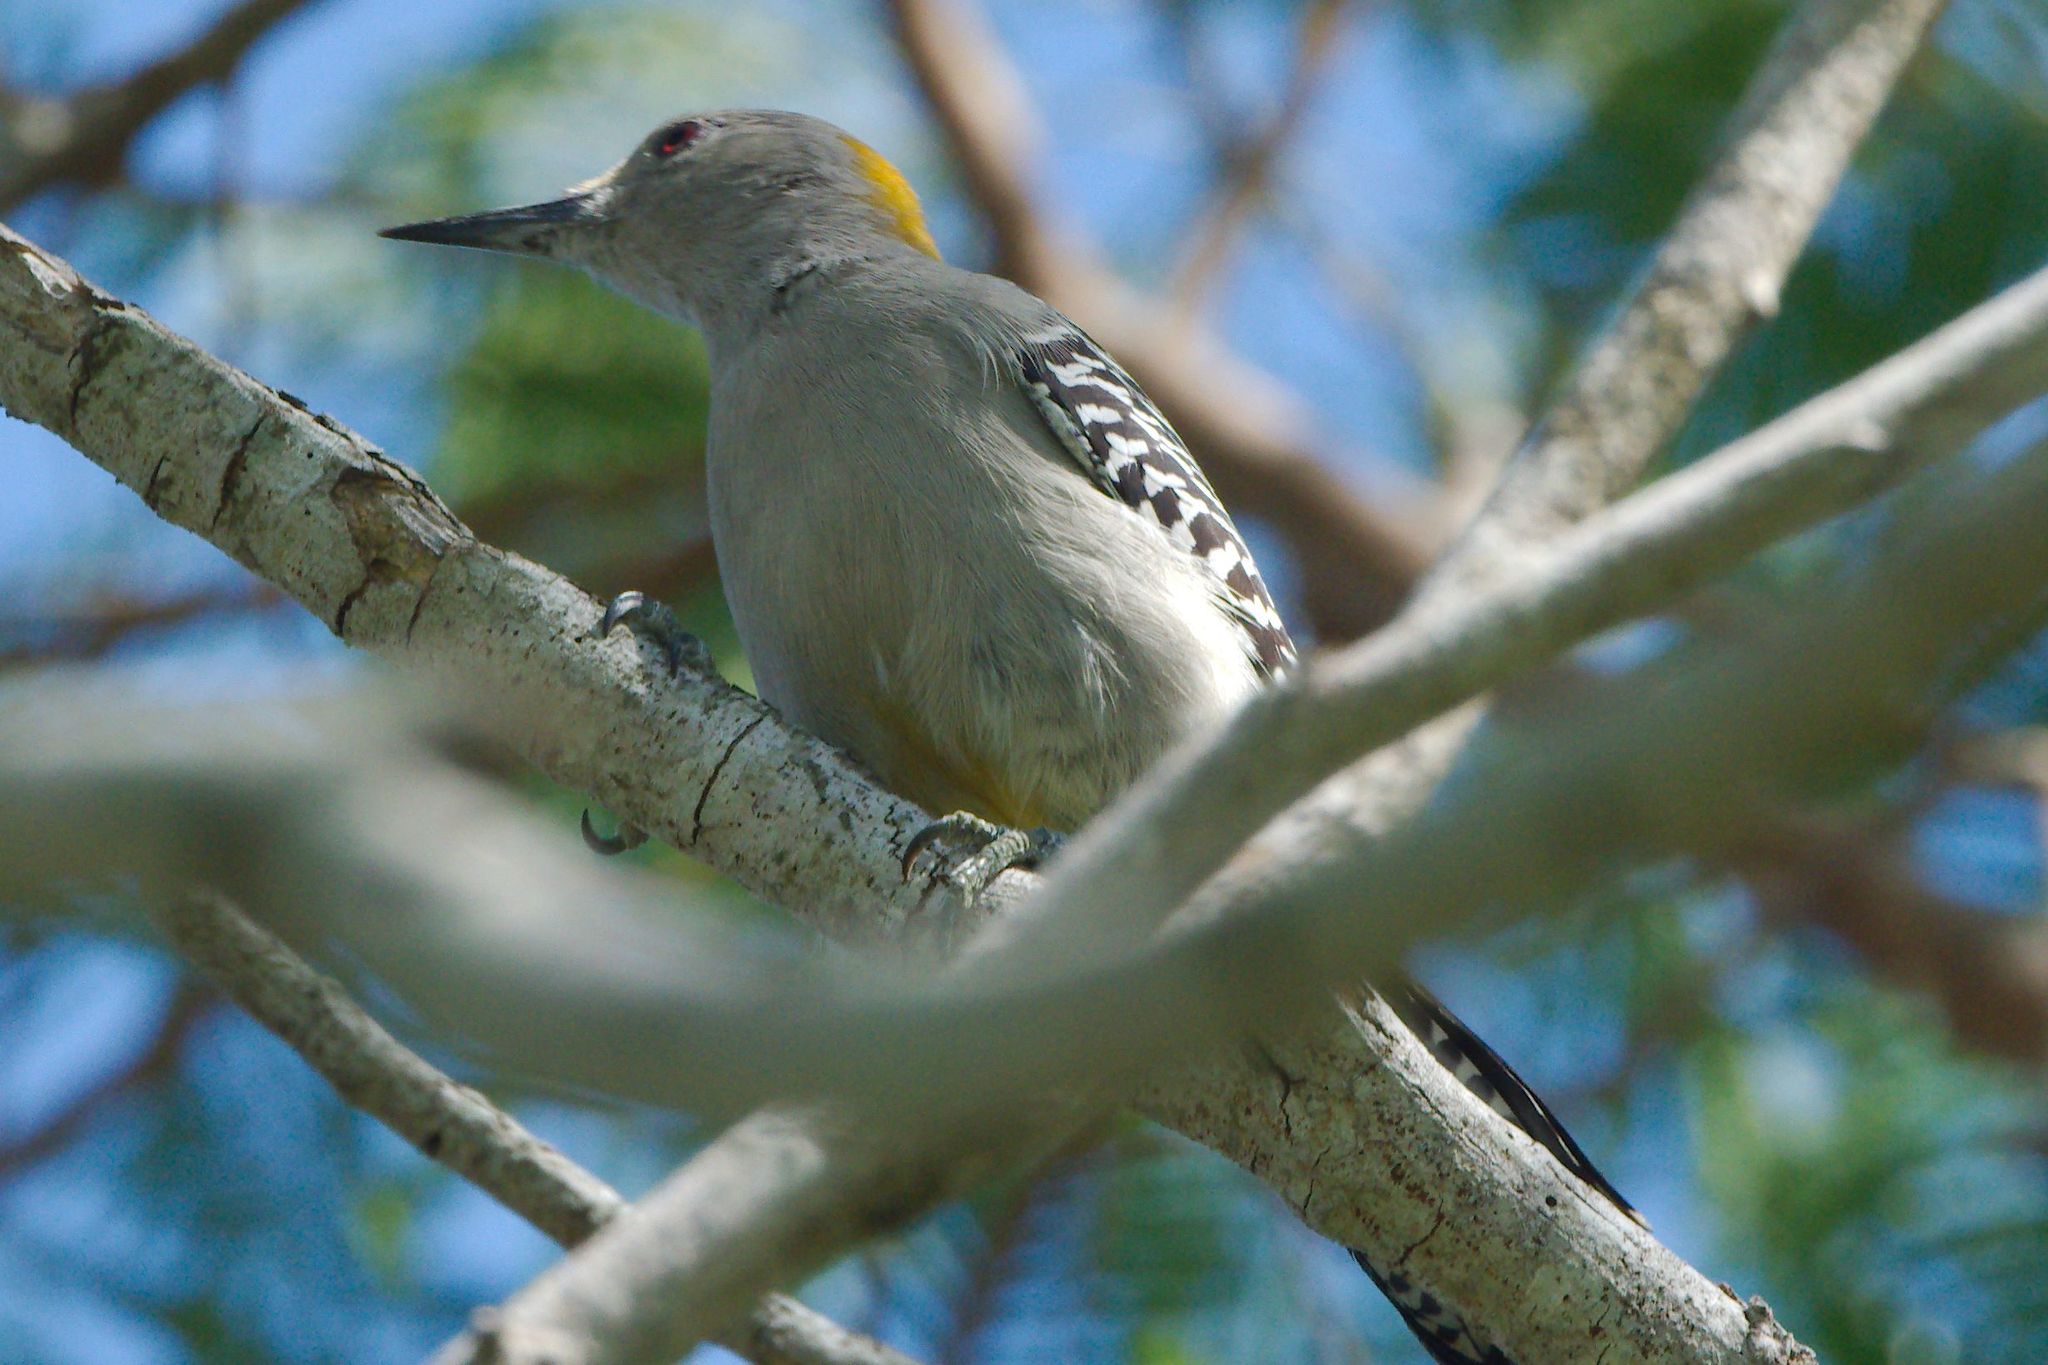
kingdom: Animalia
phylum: Chordata
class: Aves
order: Piciformes
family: Picidae
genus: Melanerpes
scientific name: Melanerpes aurifrons
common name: Golden-fronted woodpecker
